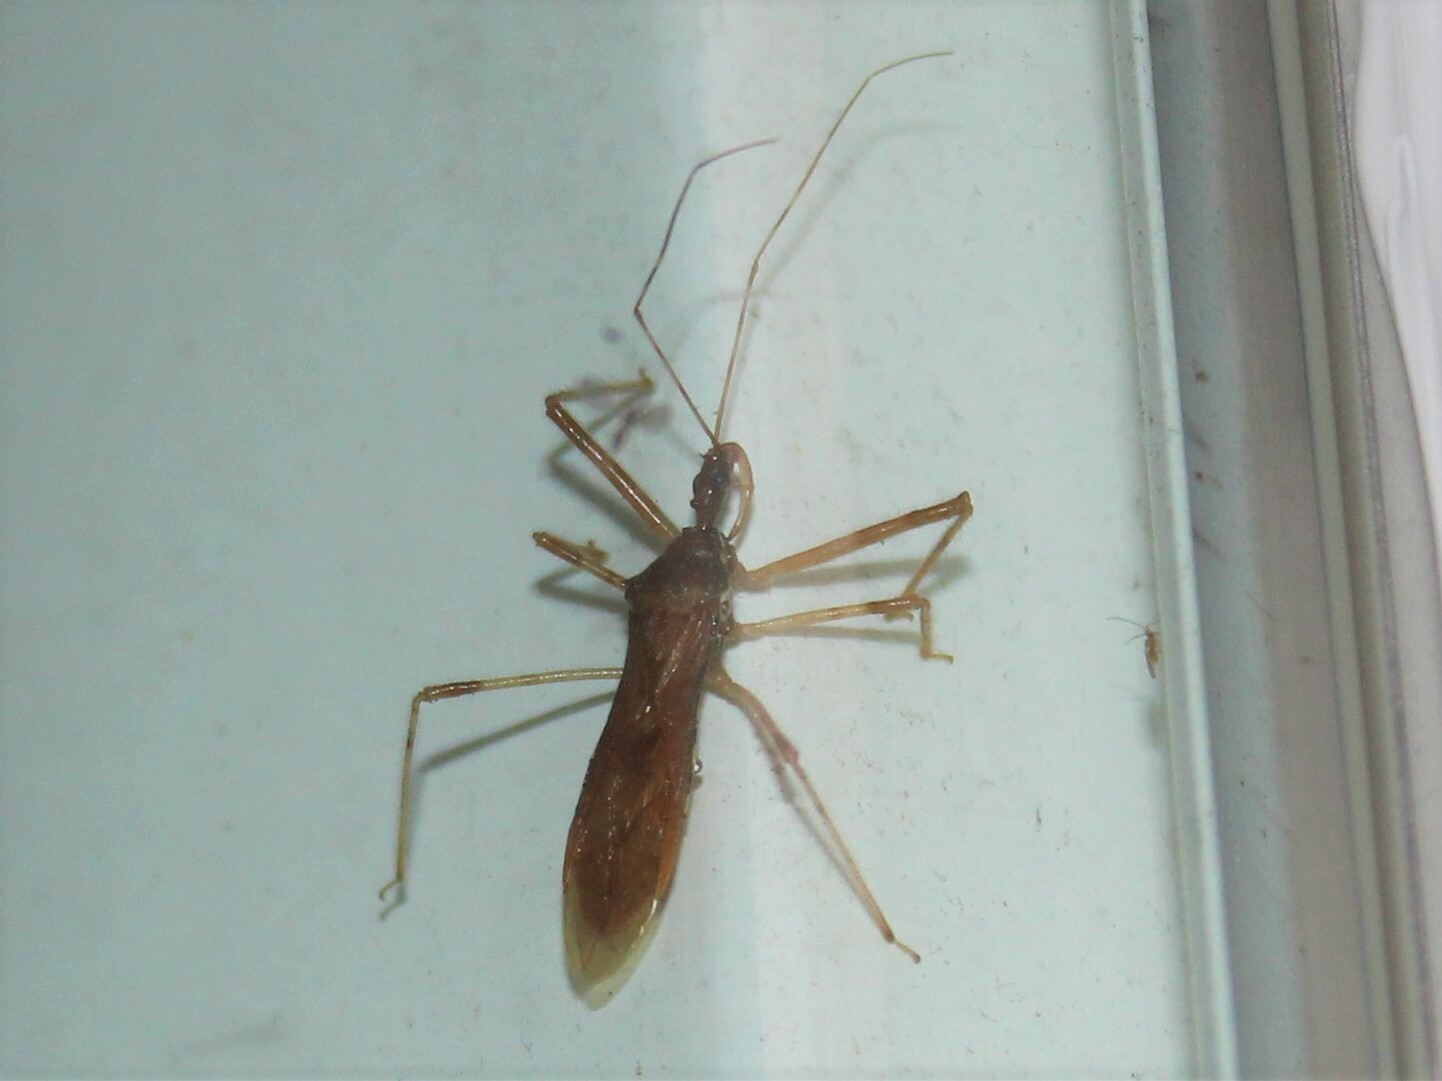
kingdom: Animalia
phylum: Arthropoda
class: Insecta
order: Hemiptera
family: Reduviidae
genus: Rocconota
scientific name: Rocconota annulicornis
